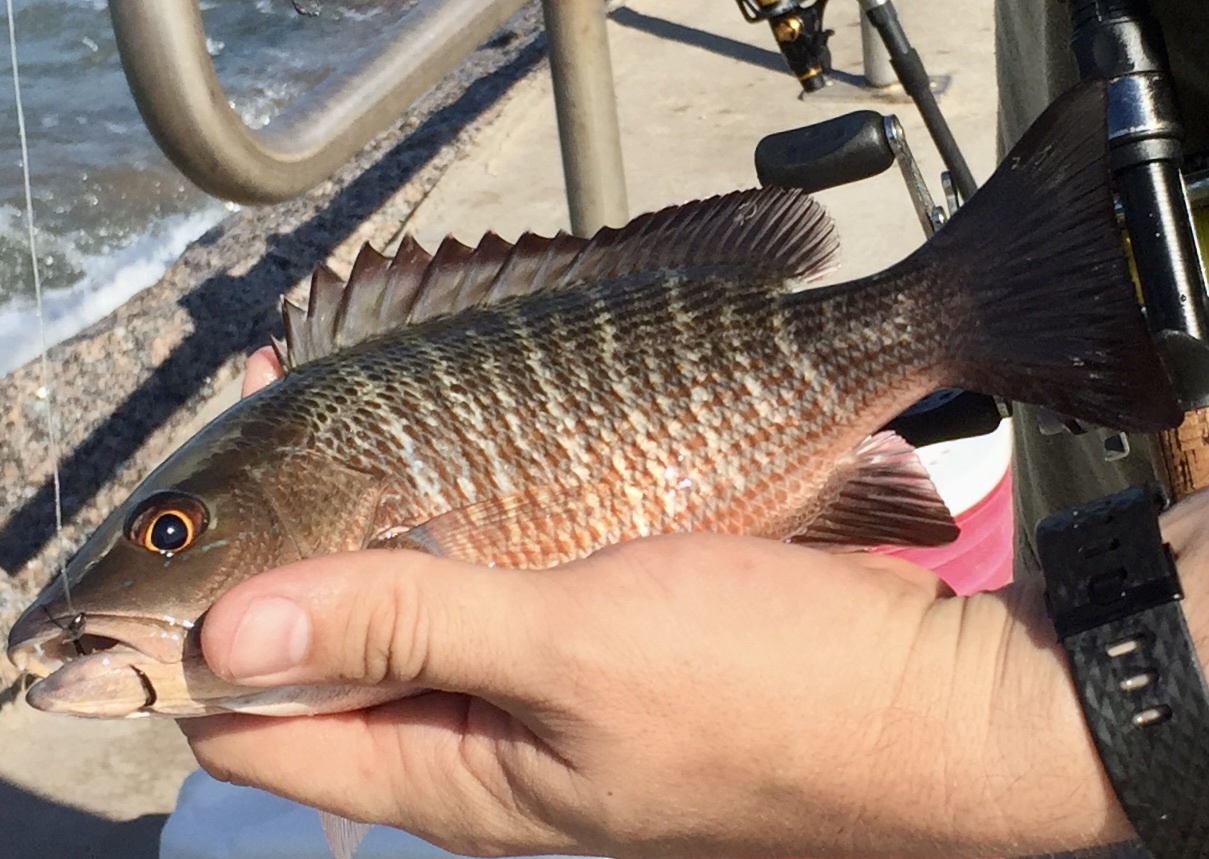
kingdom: Animalia
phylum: Chordata
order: Perciformes
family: Lutjanidae
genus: Lutjanus
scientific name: Lutjanus griseus
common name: Gray snapper
